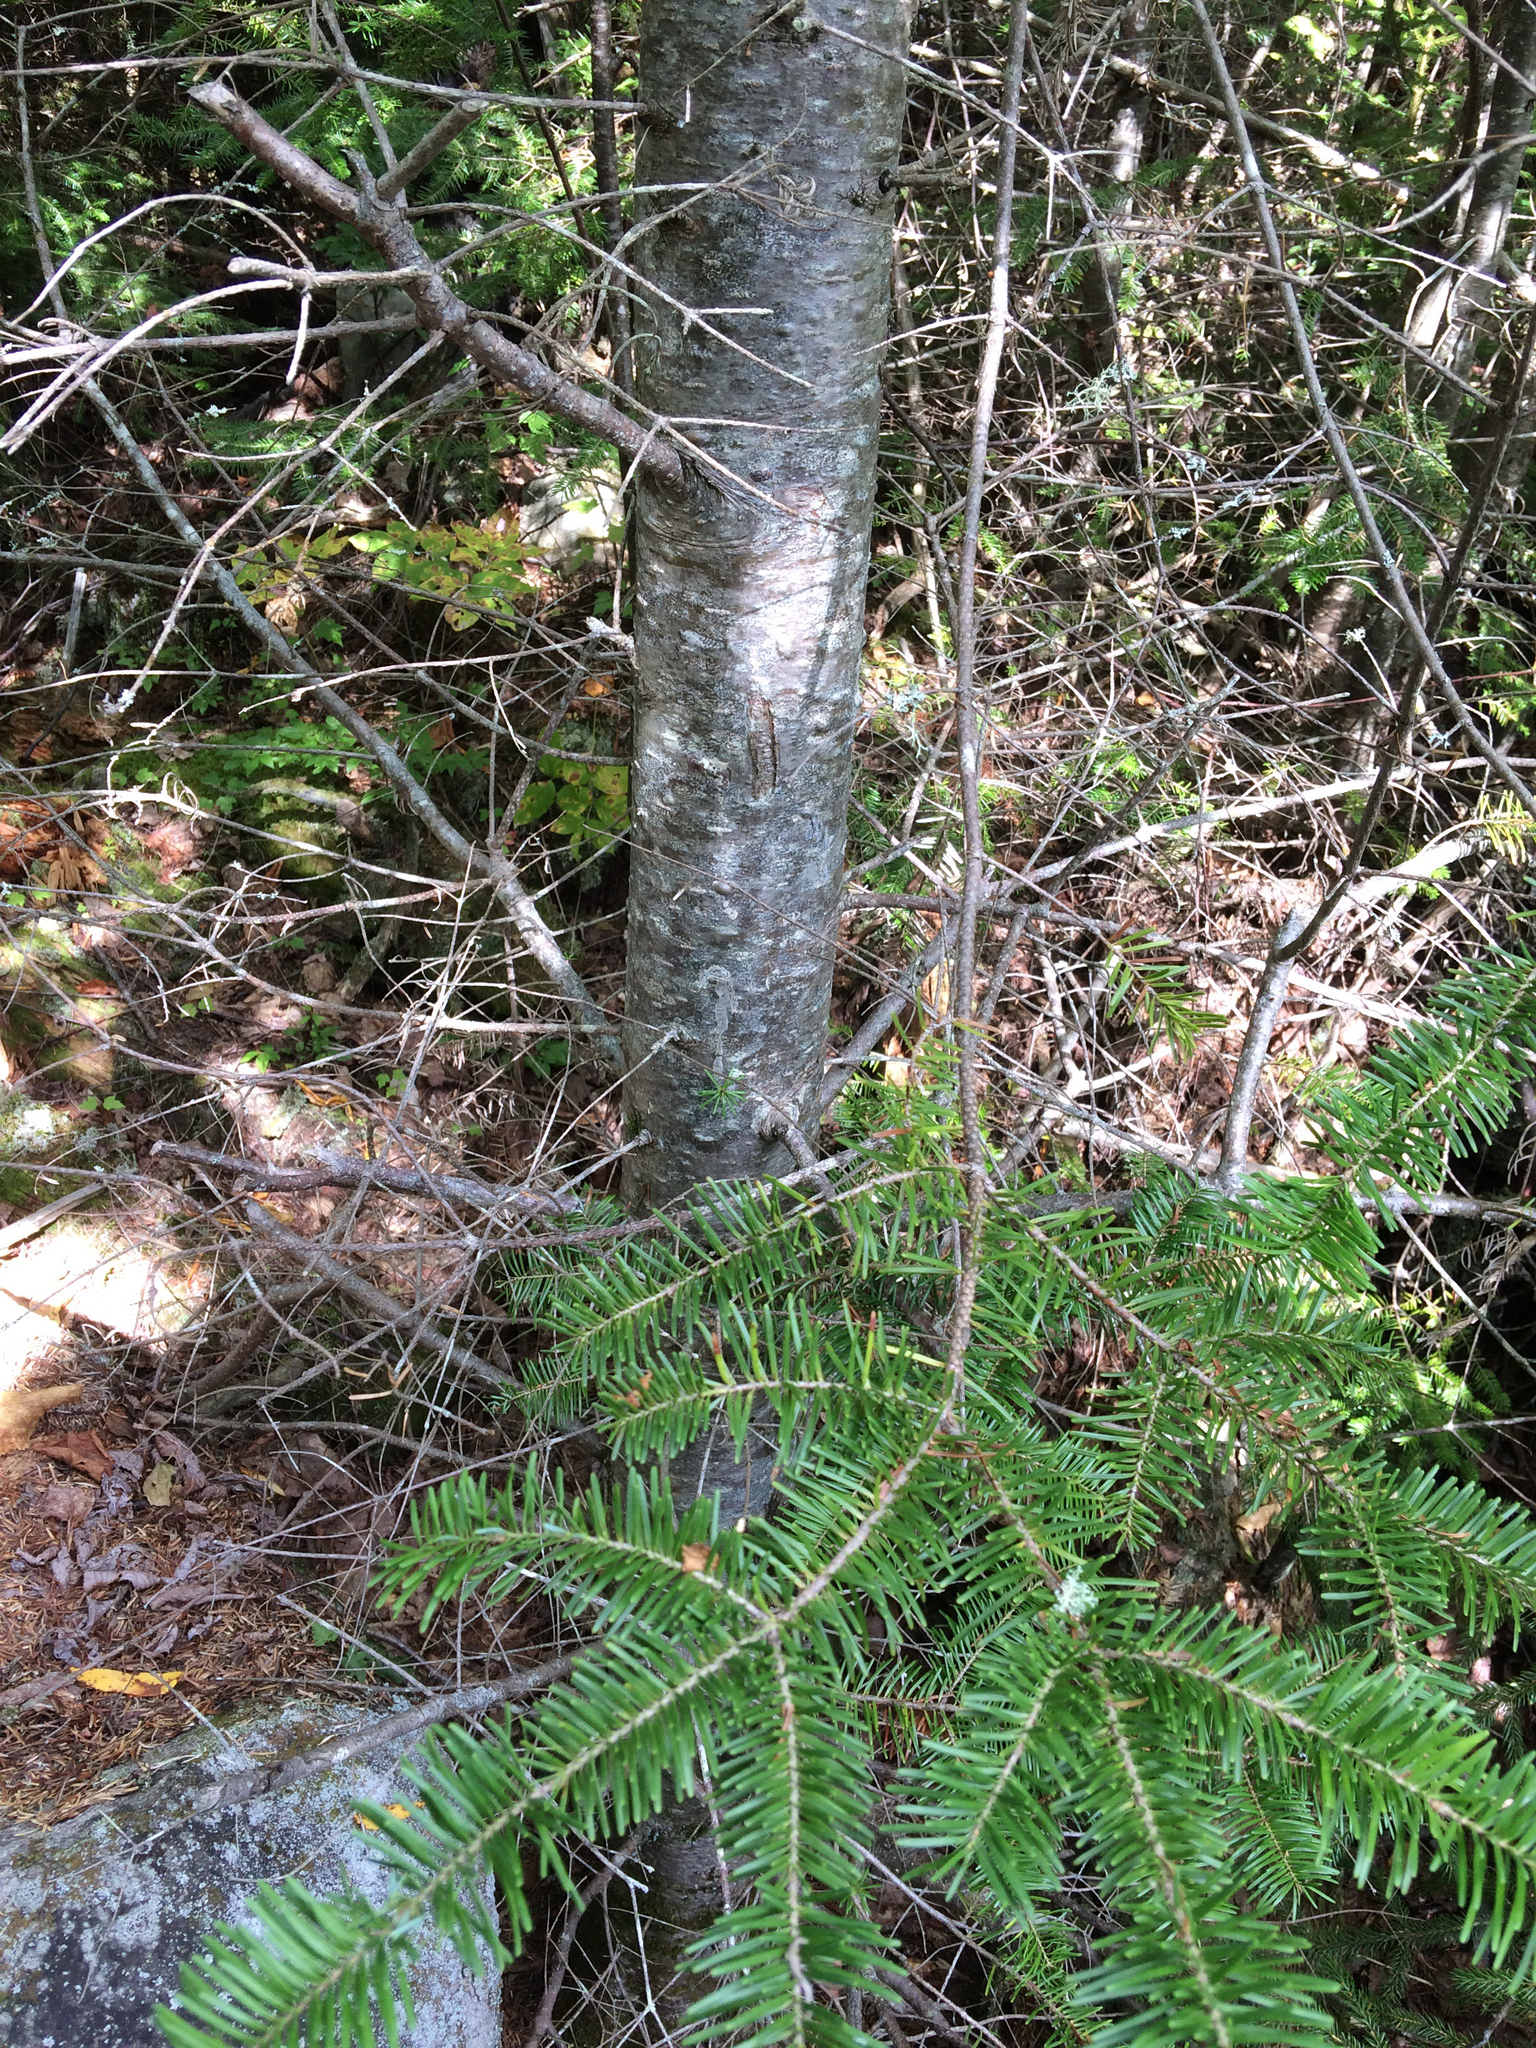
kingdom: Plantae
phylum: Tracheophyta
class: Pinopsida
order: Pinales
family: Pinaceae
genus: Abies
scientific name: Abies balsamea
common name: Balsam fir
